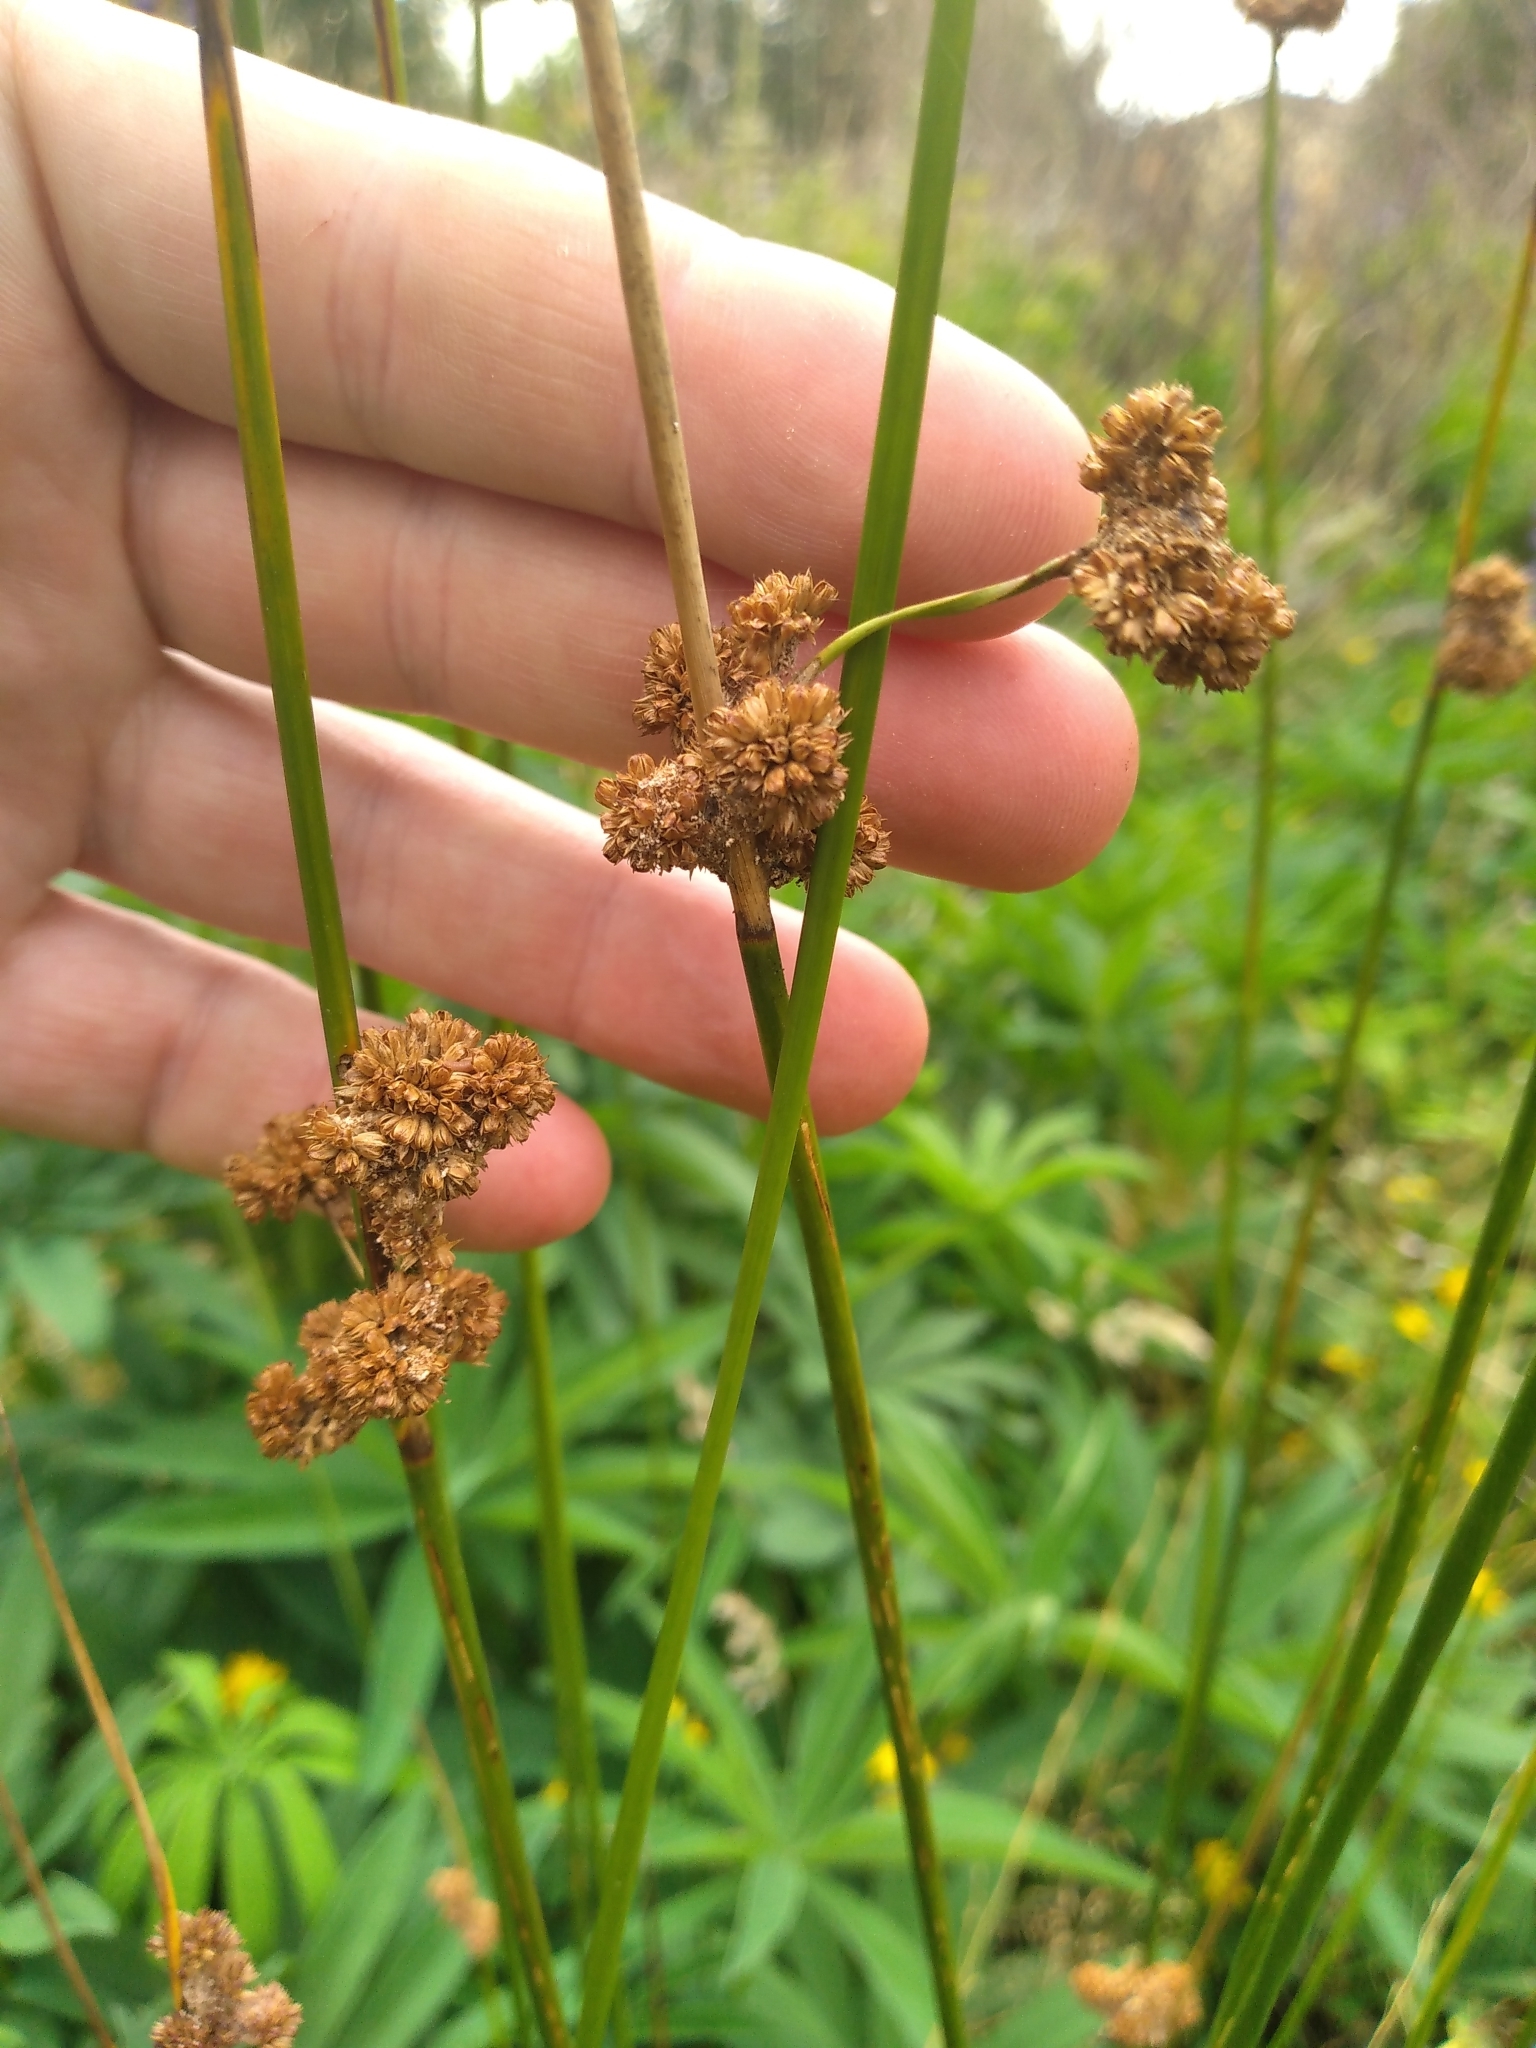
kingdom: Plantae
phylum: Tracheophyta
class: Liliopsida
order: Poales
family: Juncaceae
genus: Juncus
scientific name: Juncus australis
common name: Austral rush
